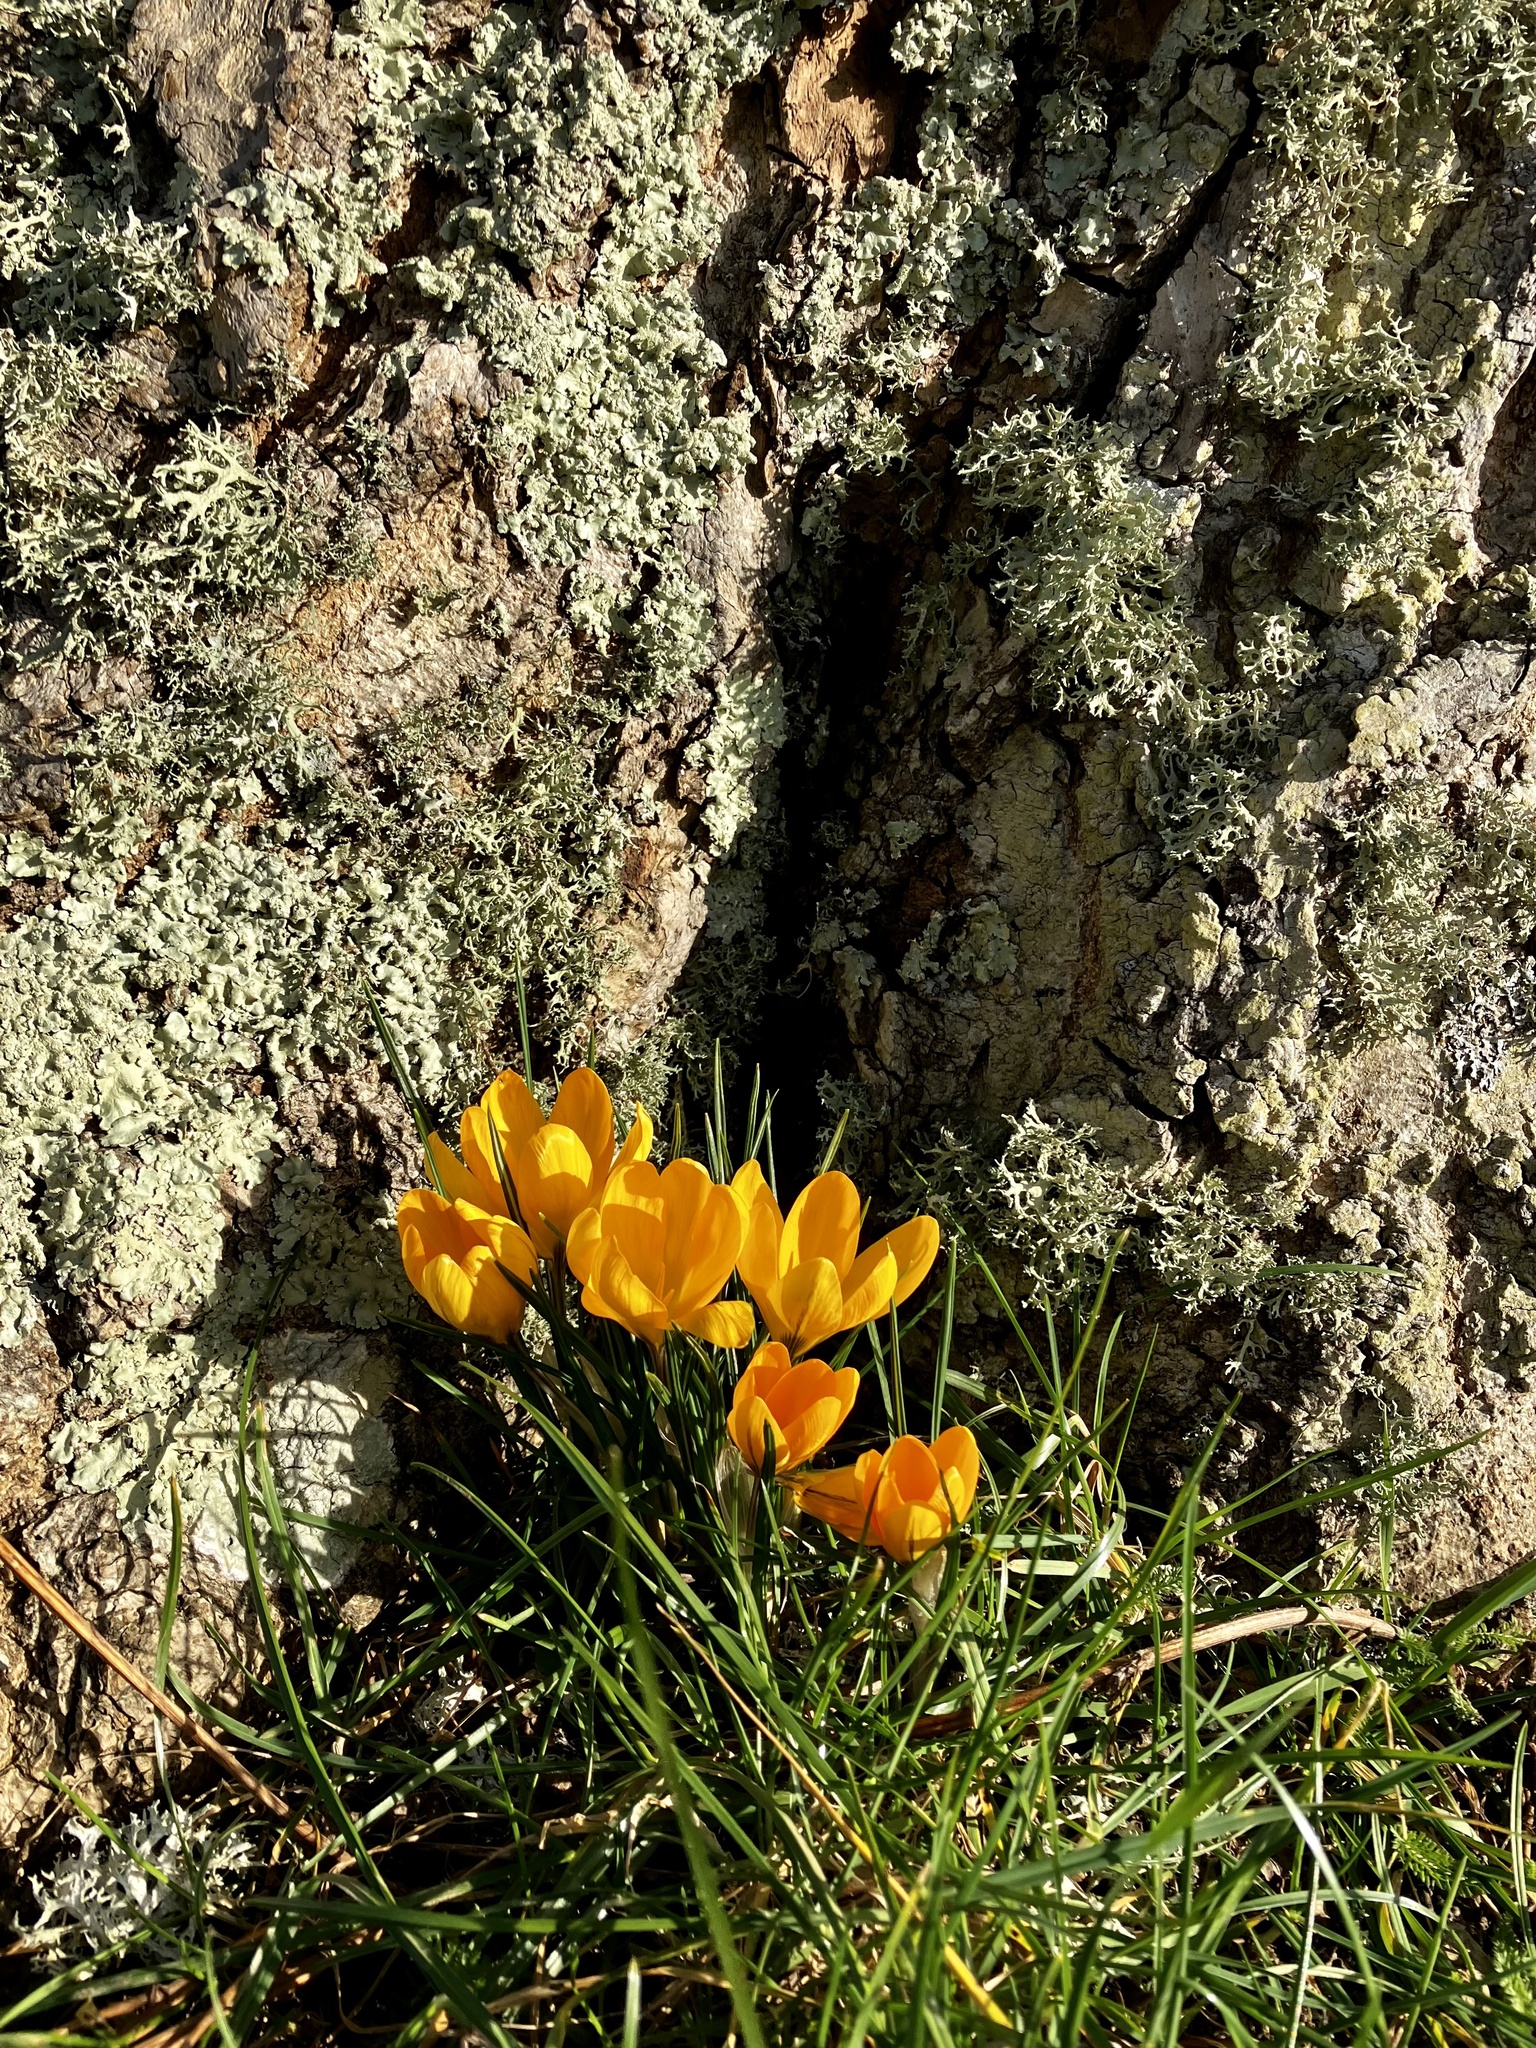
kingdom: Plantae
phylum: Tracheophyta
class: Liliopsida
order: Asparagales
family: Iridaceae
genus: Crocus
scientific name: Crocus luteus
